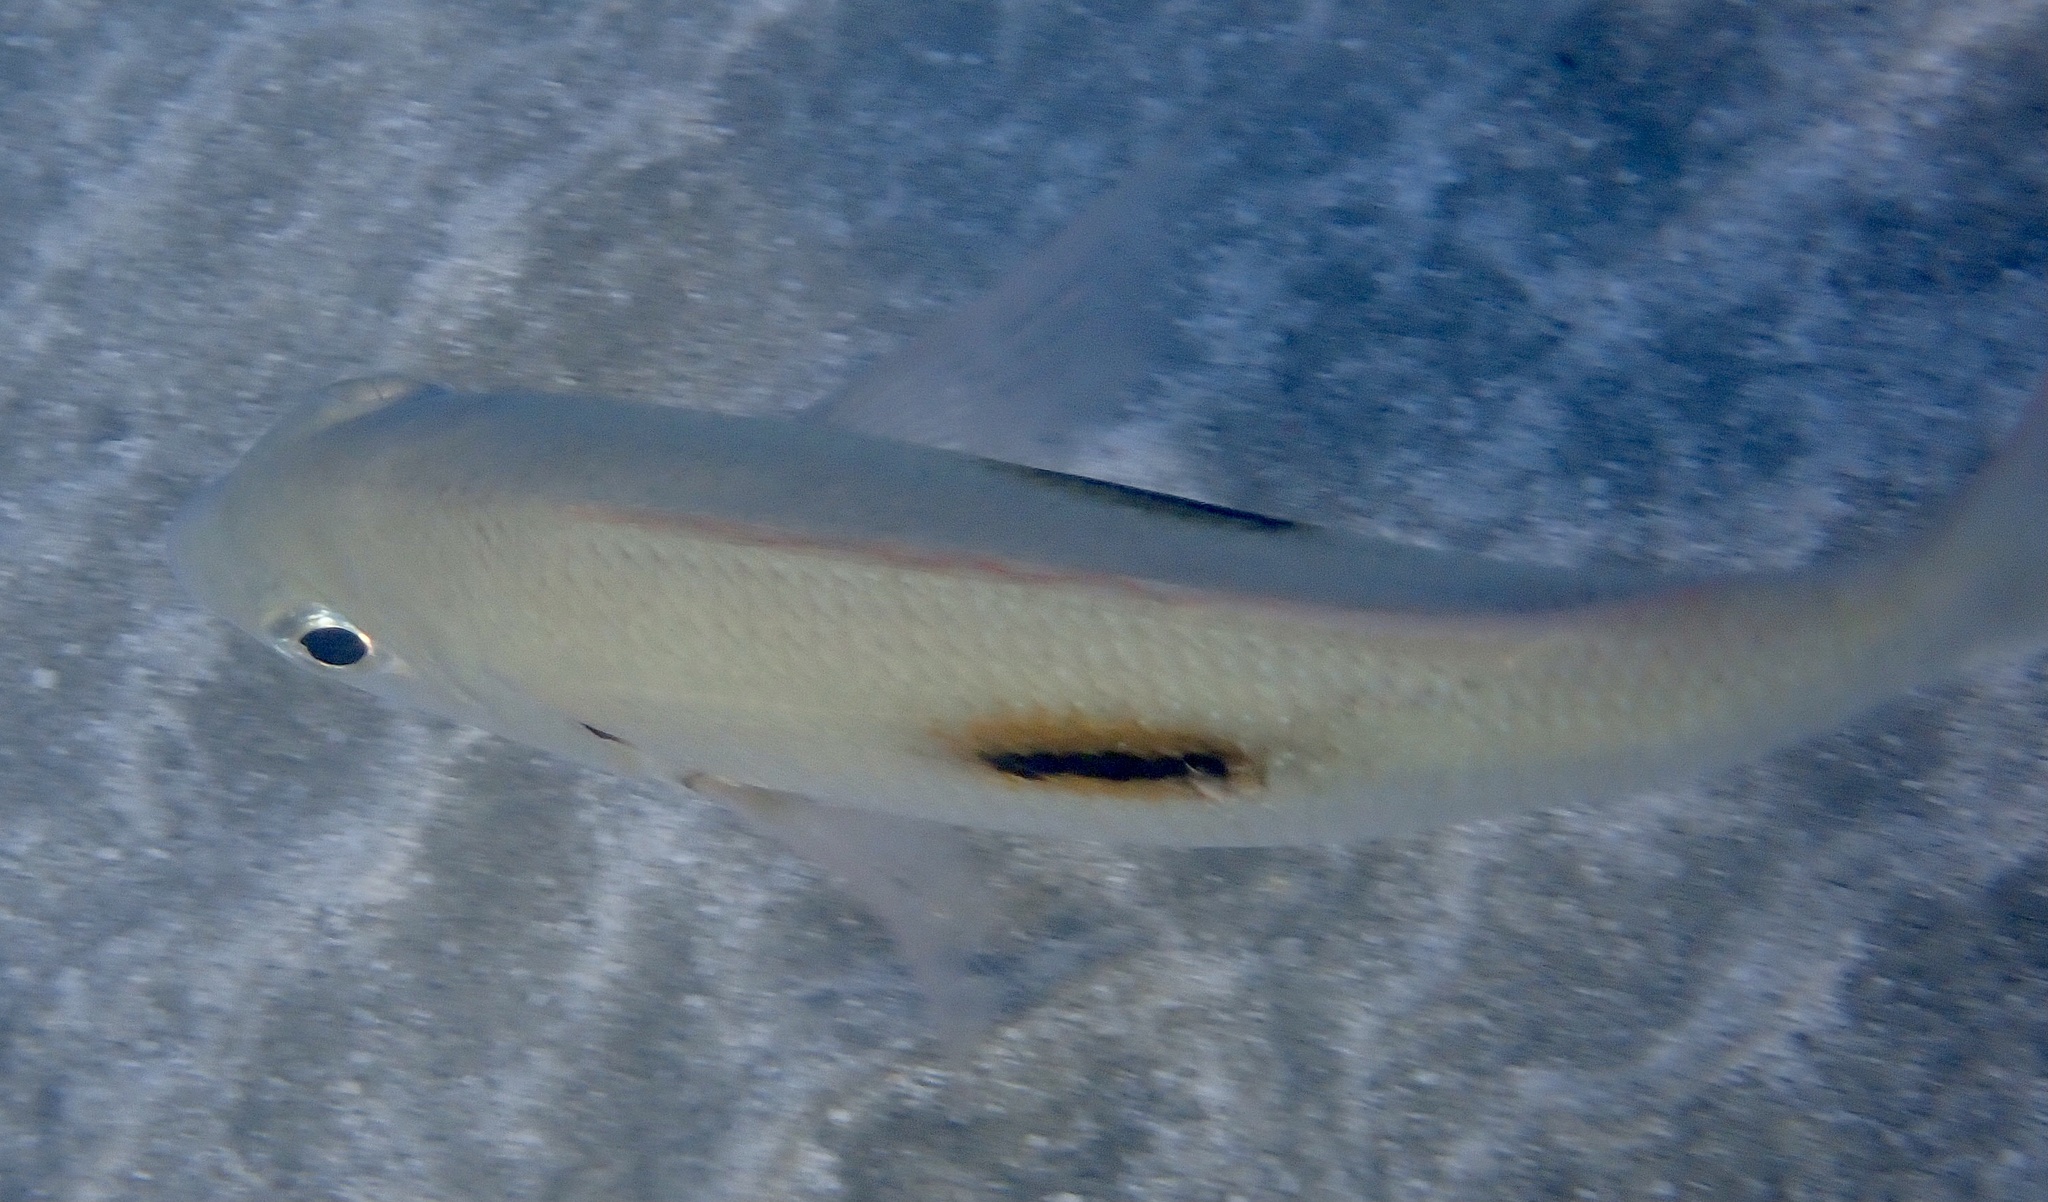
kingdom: Animalia
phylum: Chordata
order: Perciformes
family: Lethrinidae
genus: Lethrinus
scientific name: Lethrinus harak
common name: Blackspot emperor
